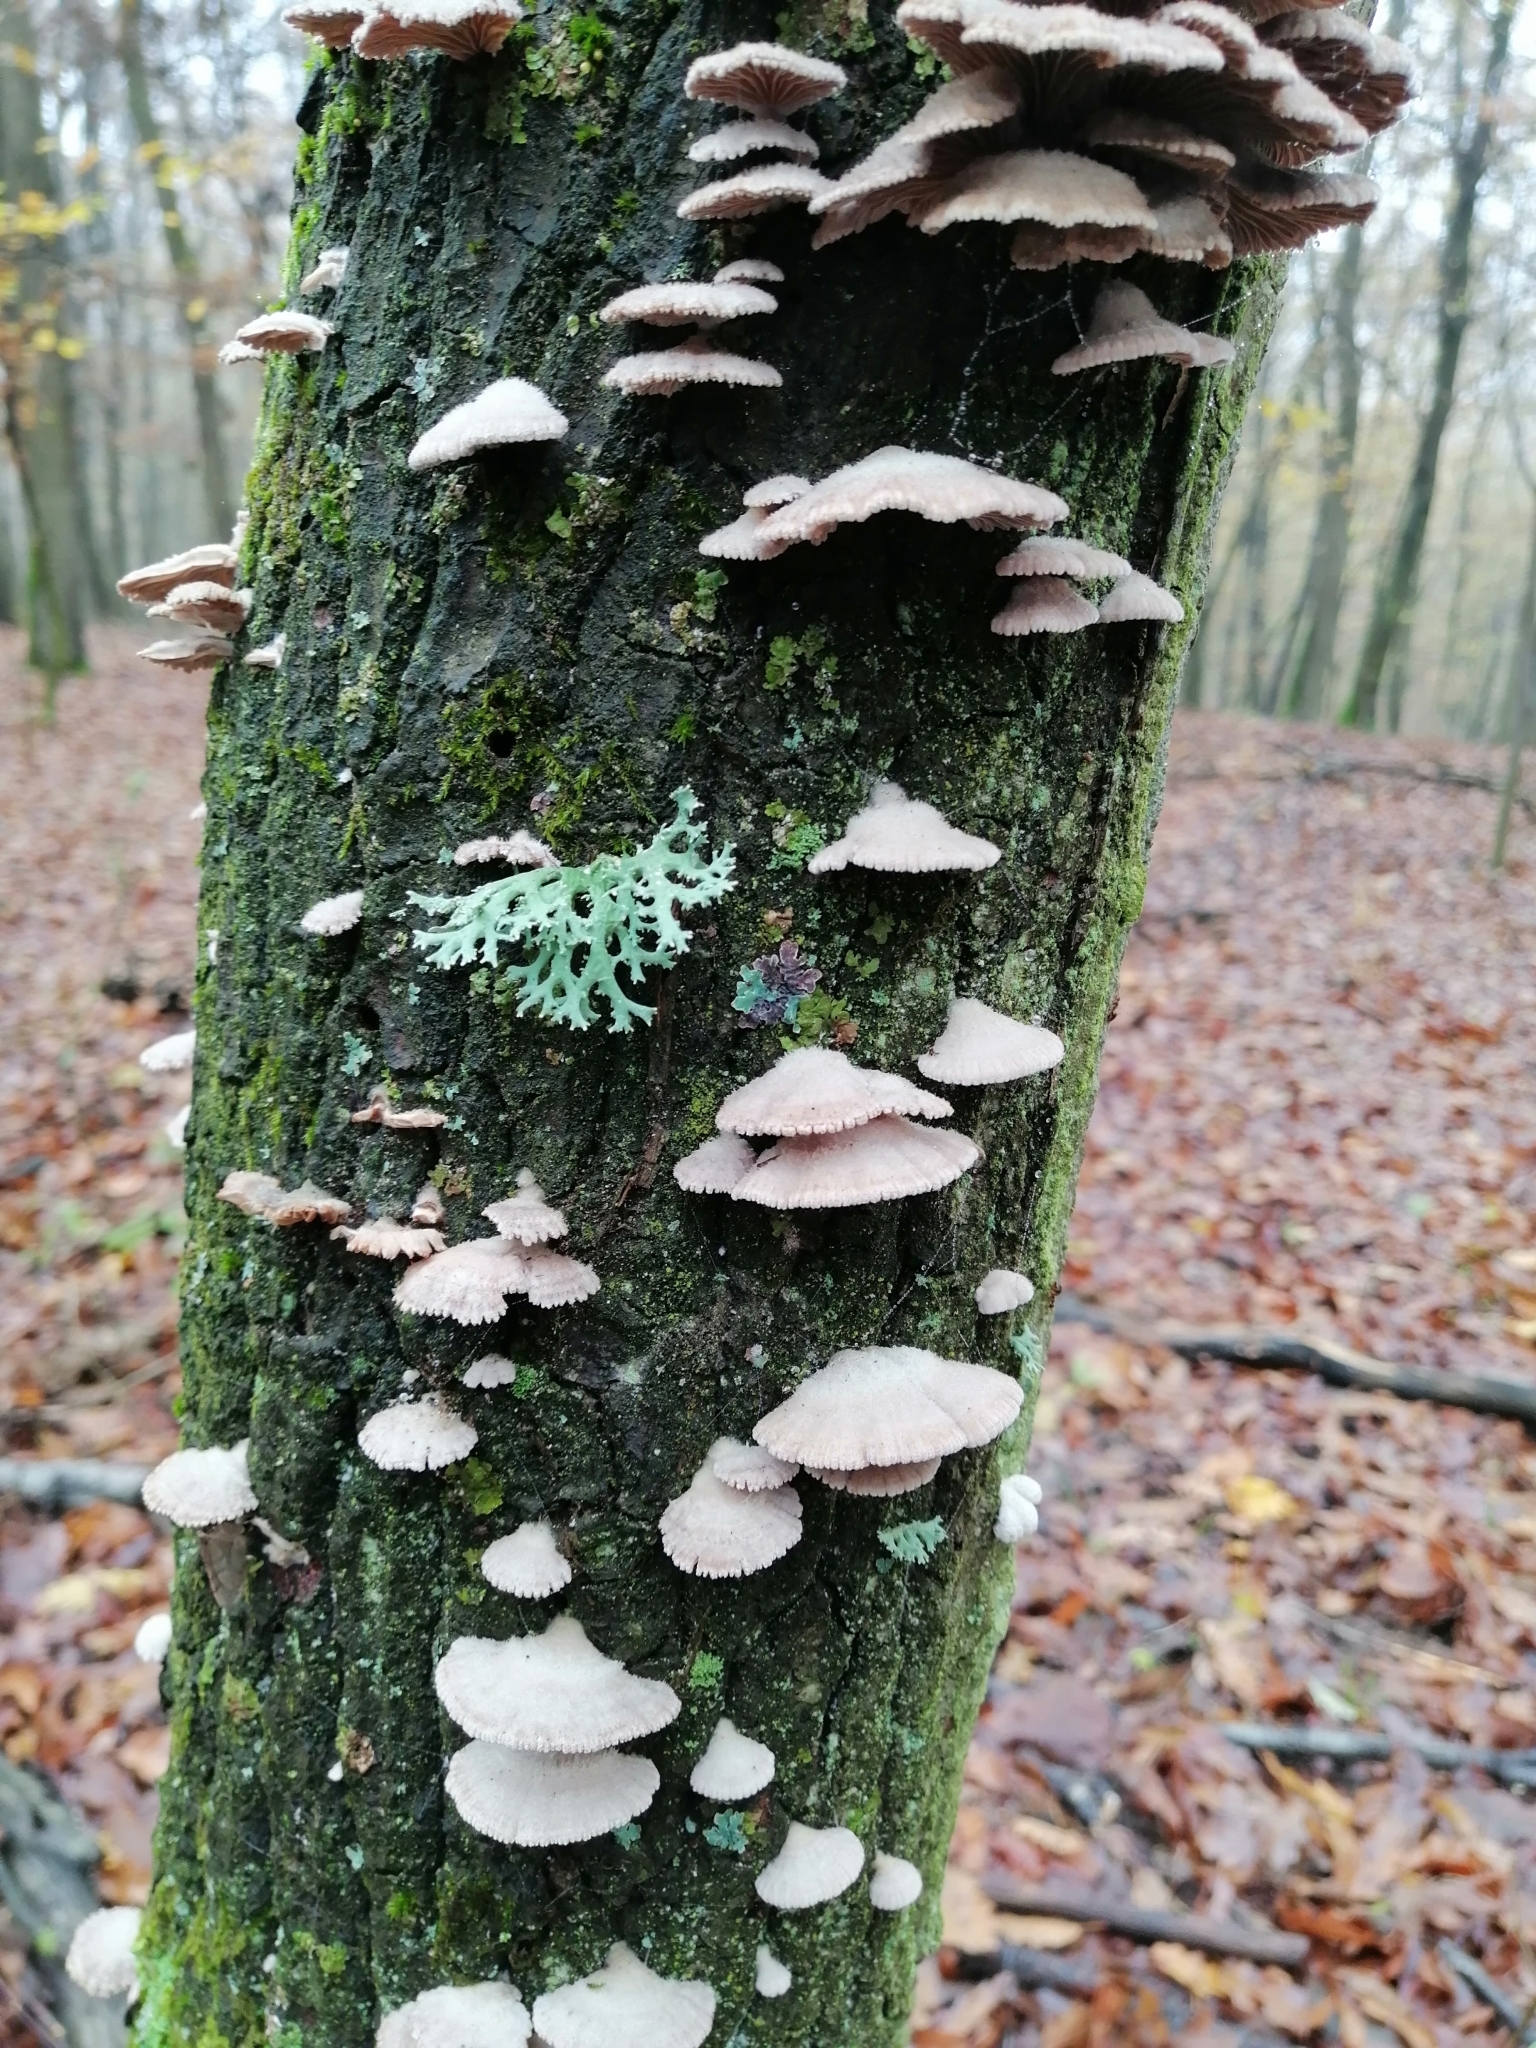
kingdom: Fungi
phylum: Basidiomycota
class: Agaricomycetes
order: Agaricales
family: Schizophyllaceae
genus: Schizophyllum
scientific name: Schizophyllum commune
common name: Common porecrust
